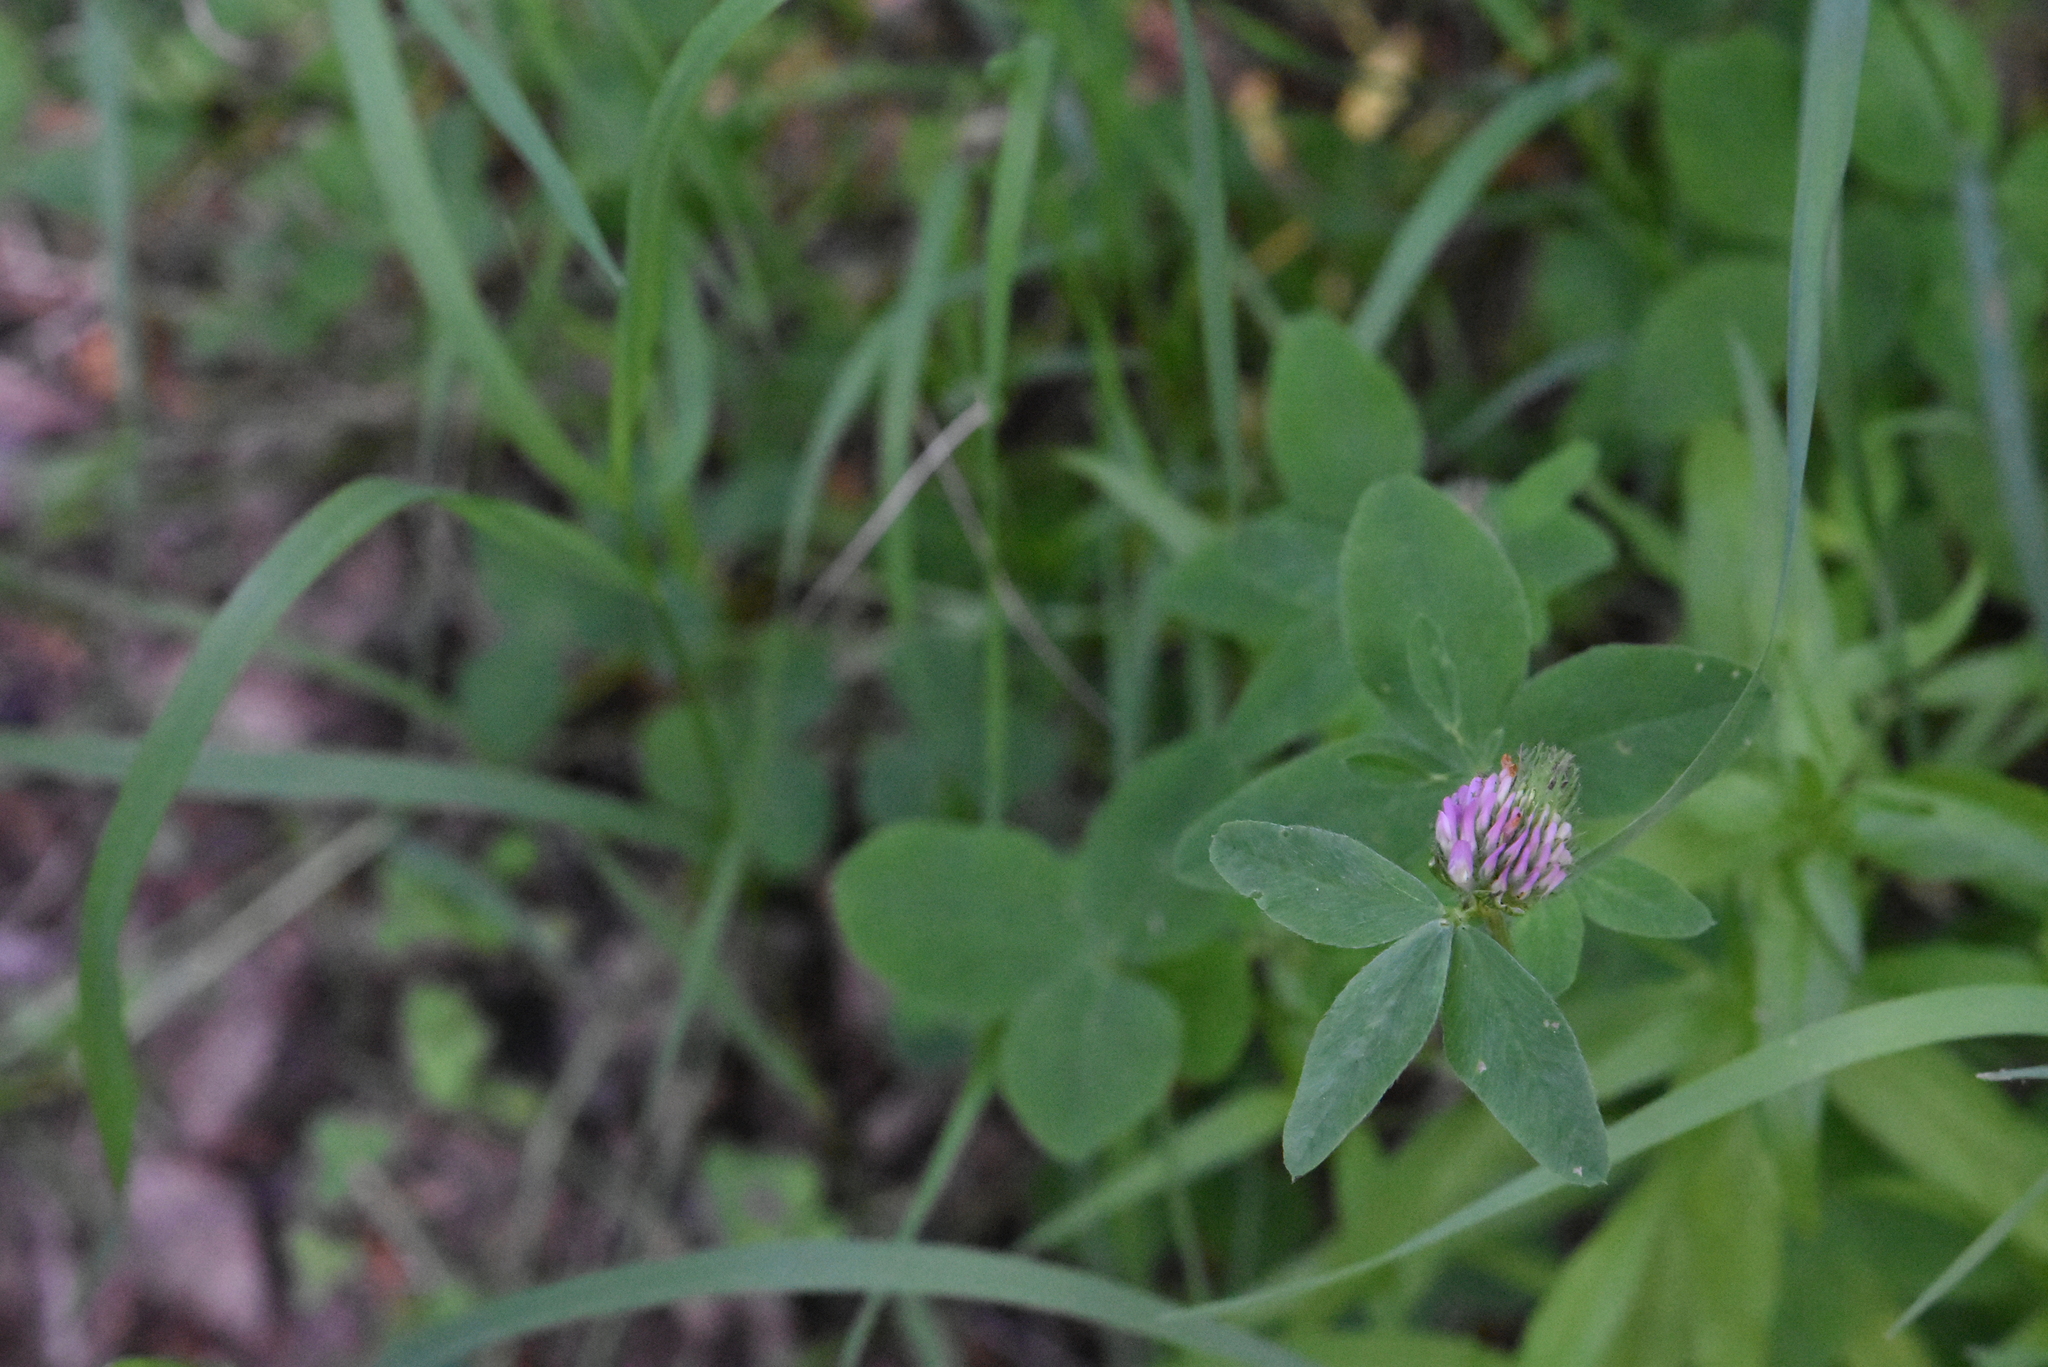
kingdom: Plantae
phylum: Tracheophyta
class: Magnoliopsida
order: Fabales
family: Fabaceae
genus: Trifolium
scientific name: Trifolium medium
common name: Zigzag clover
